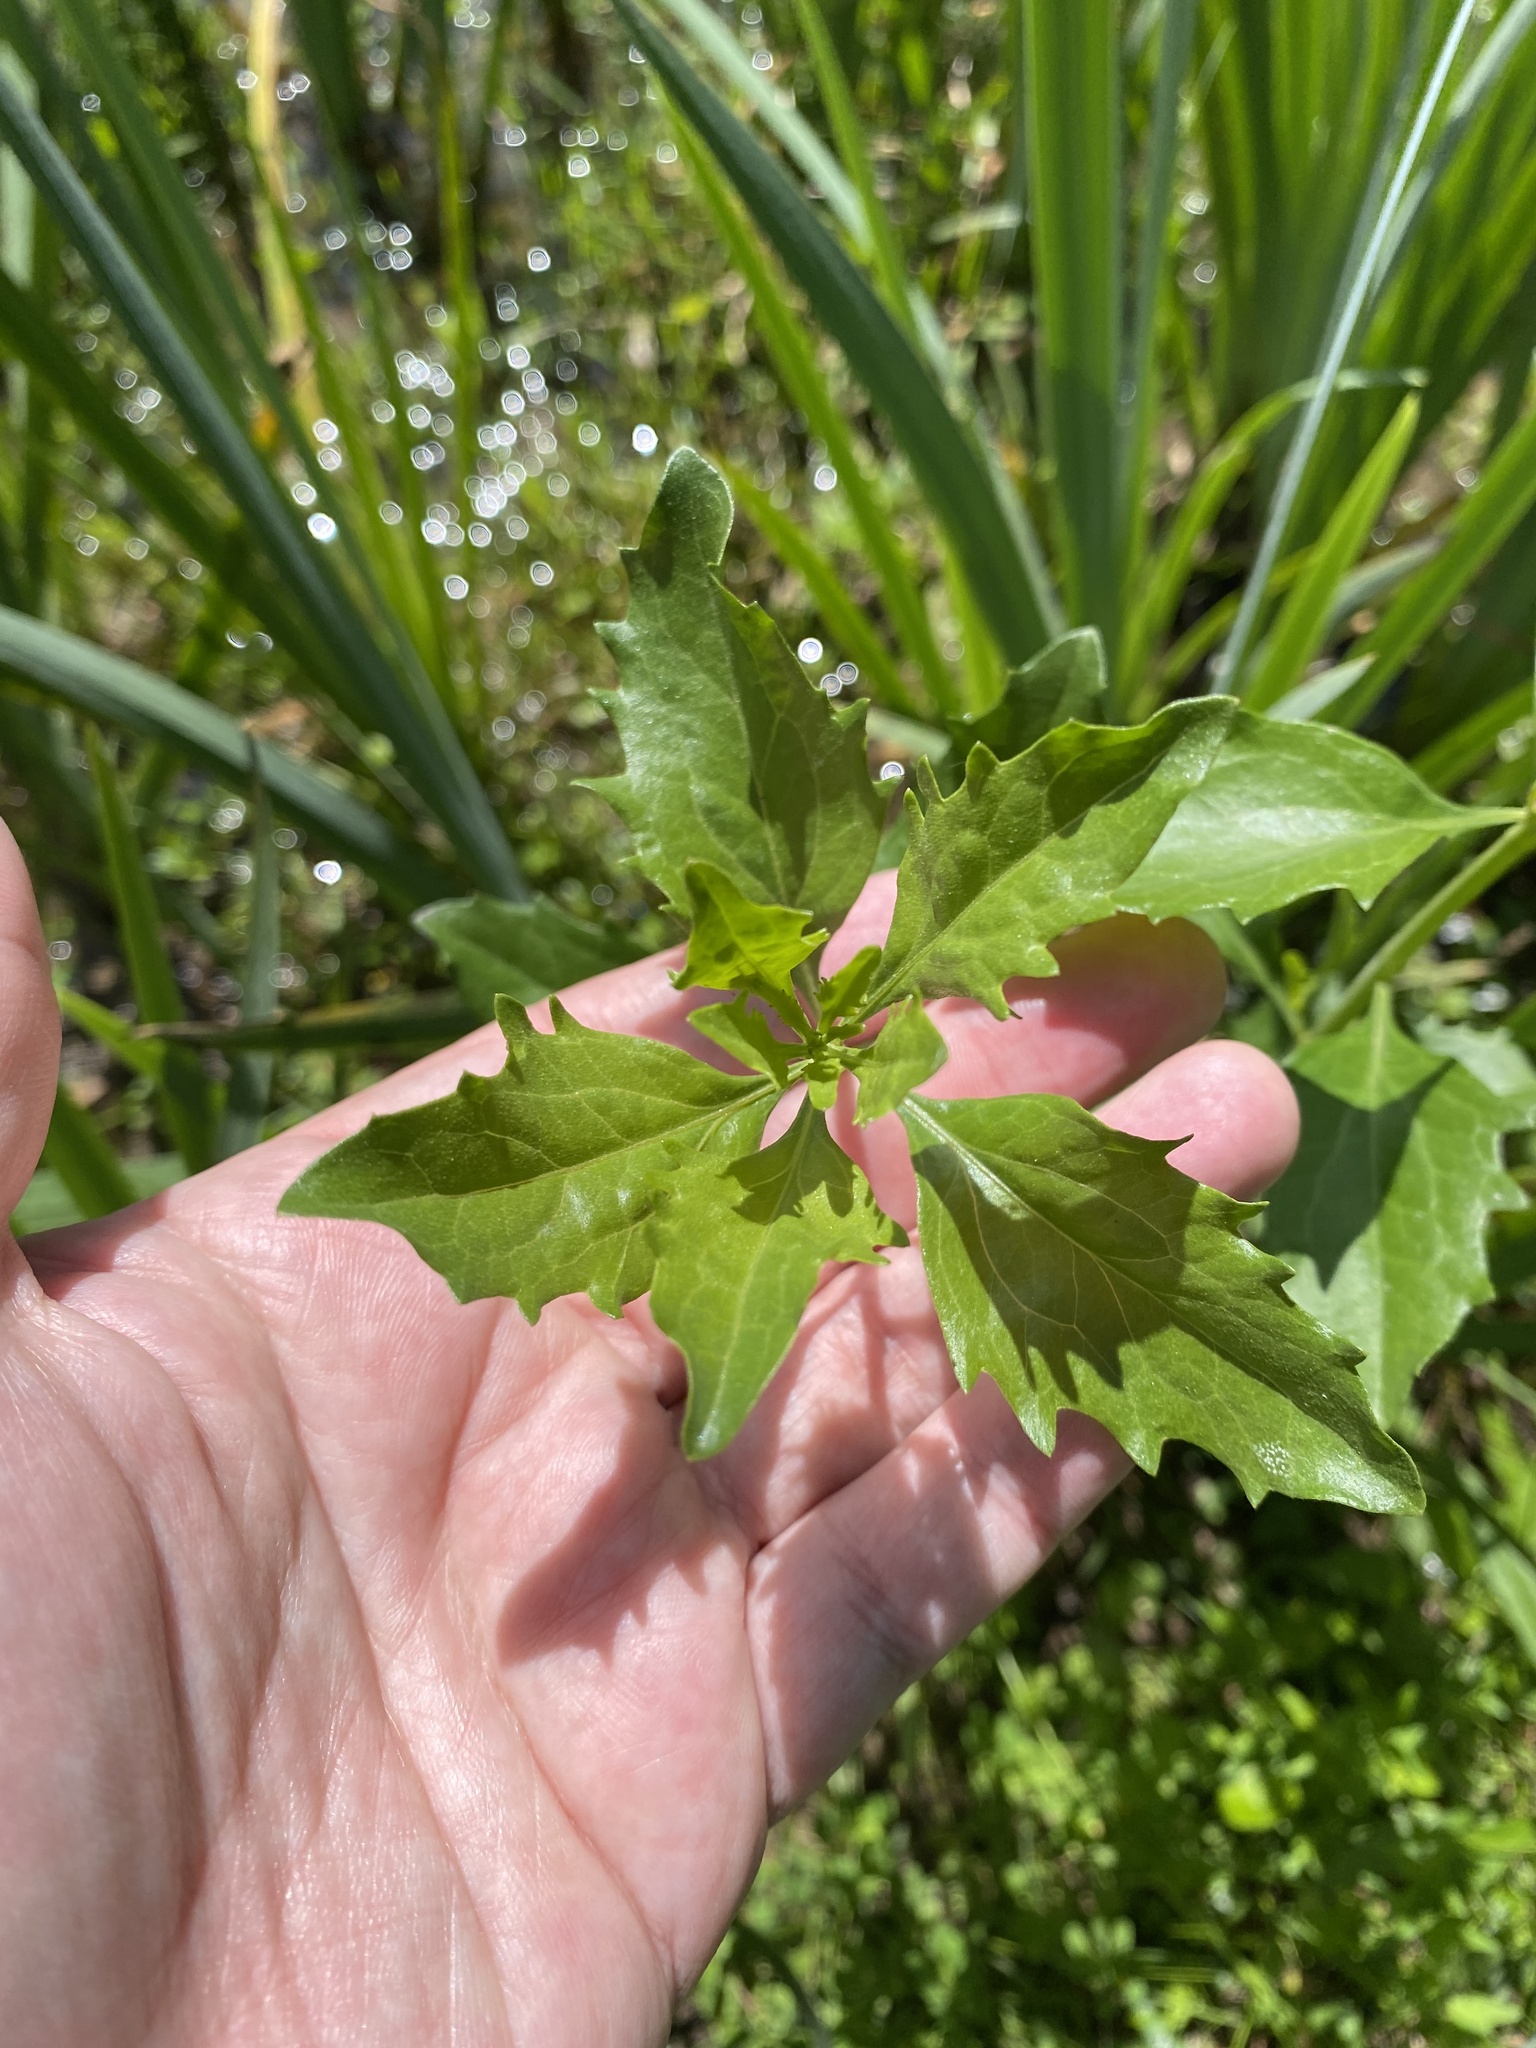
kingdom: Plantae
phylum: Tracheophyta
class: Magnoliopsida
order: Asterales
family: Asteraceae
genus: Baccharis
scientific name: Baccharis halimifolia
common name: Eastern baccharis
